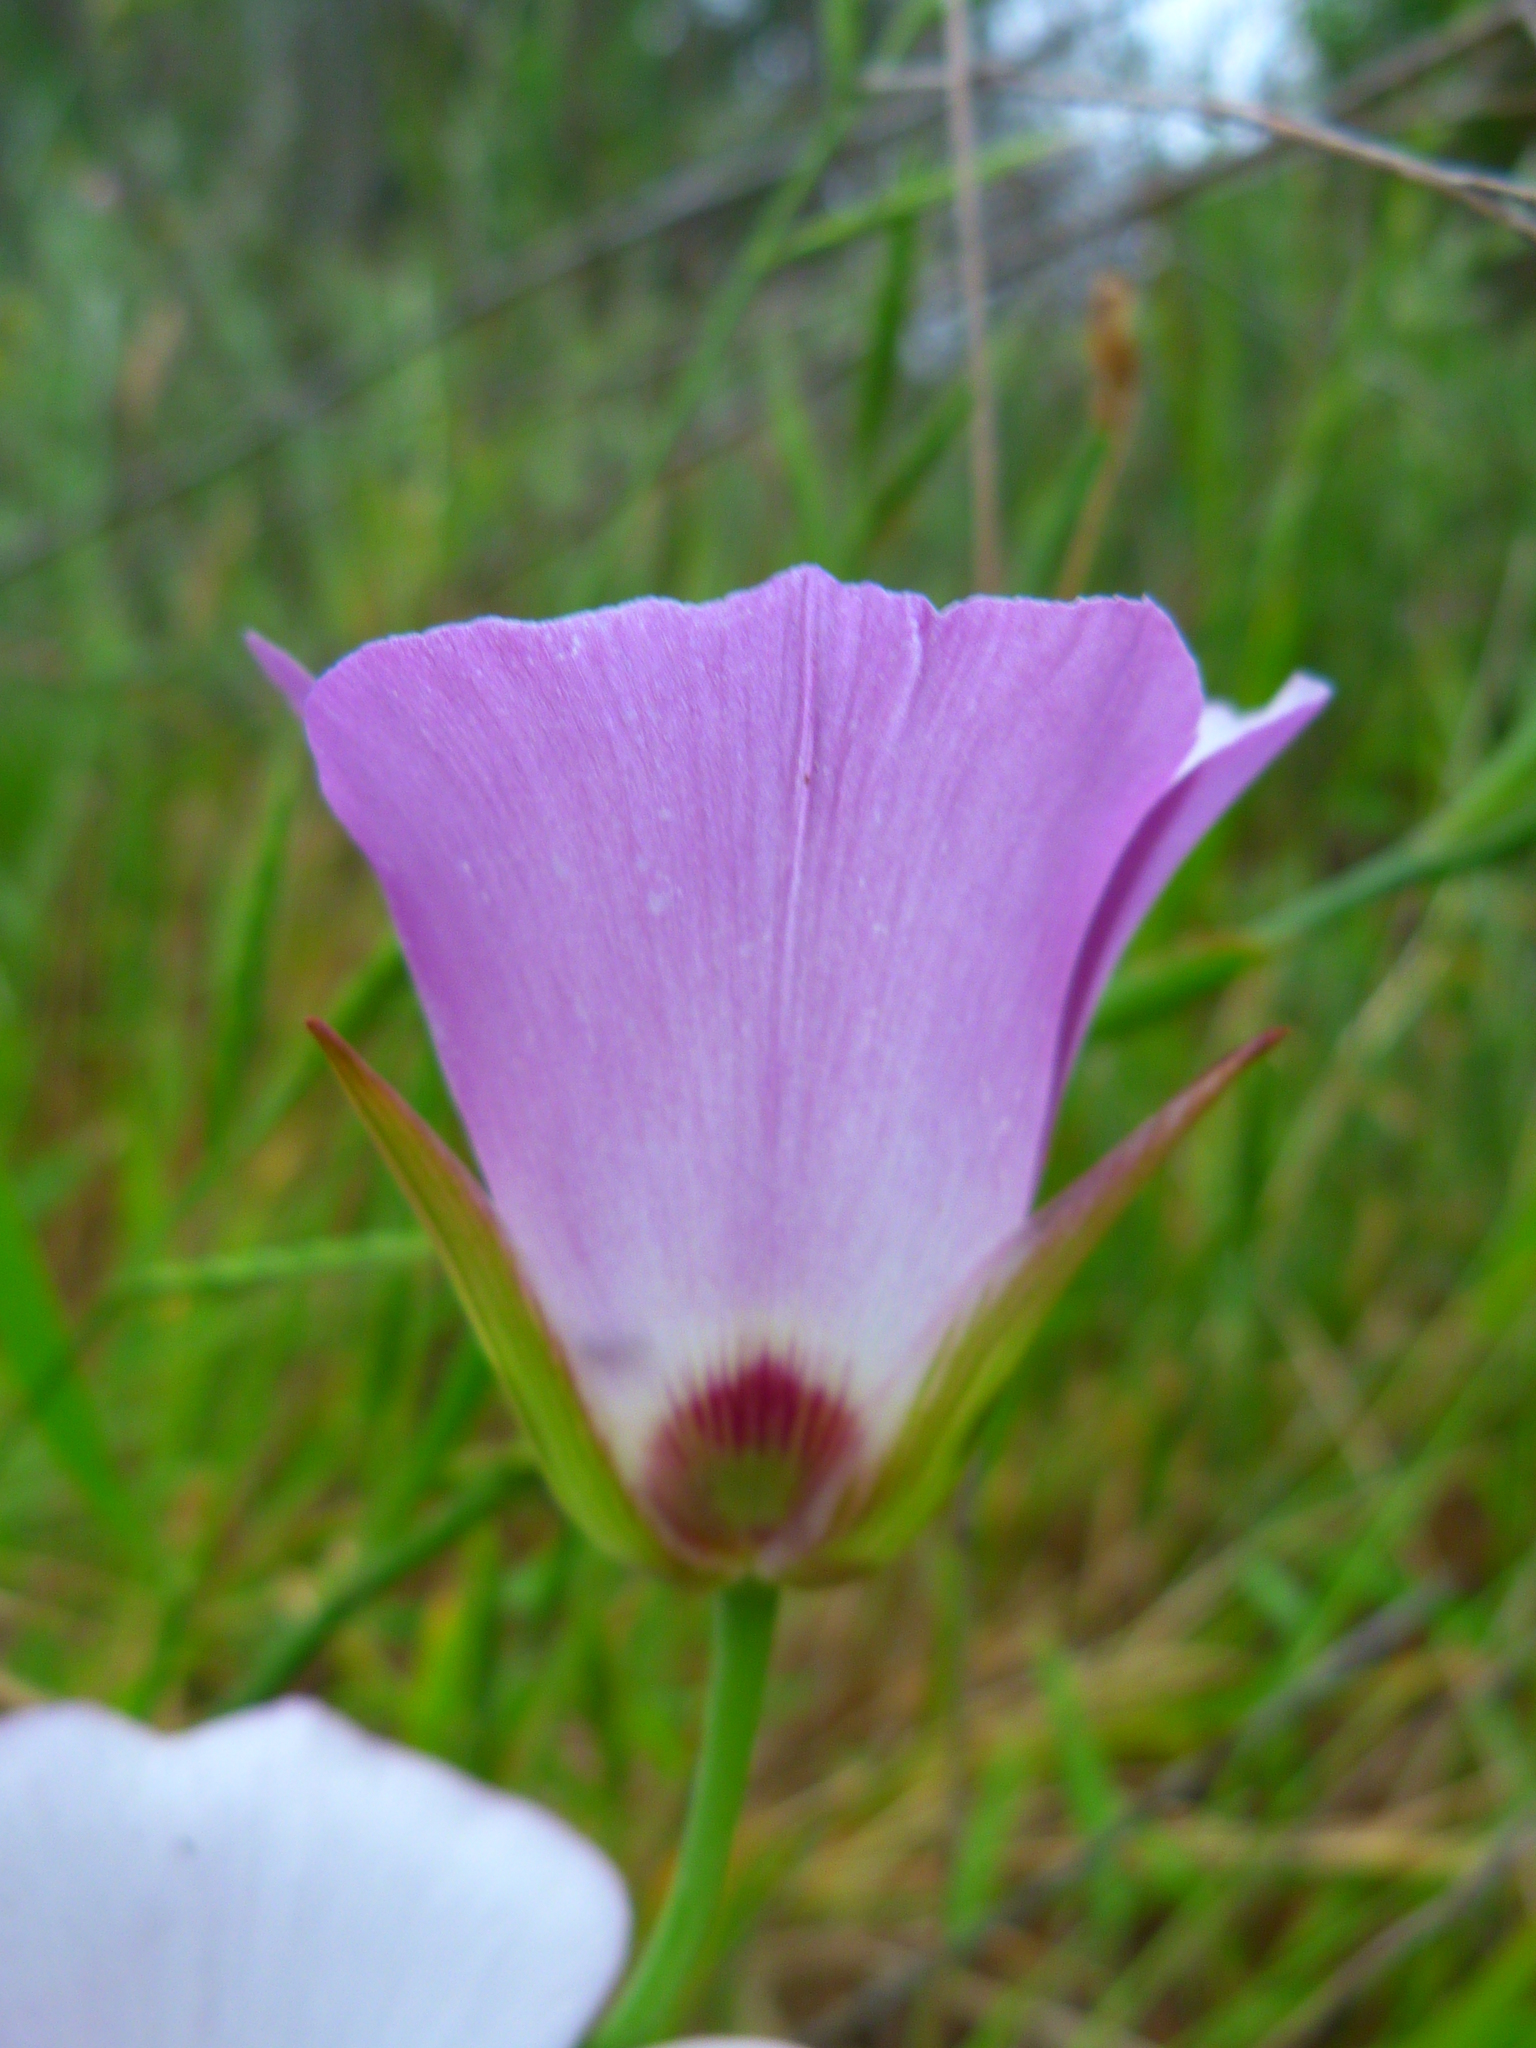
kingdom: Plantae
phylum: Tracheophyta
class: Liliopsida
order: Liliales
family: Liliaceae
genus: Calochortus
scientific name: Calochortus catalinae
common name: Catalina mariposa-lily
